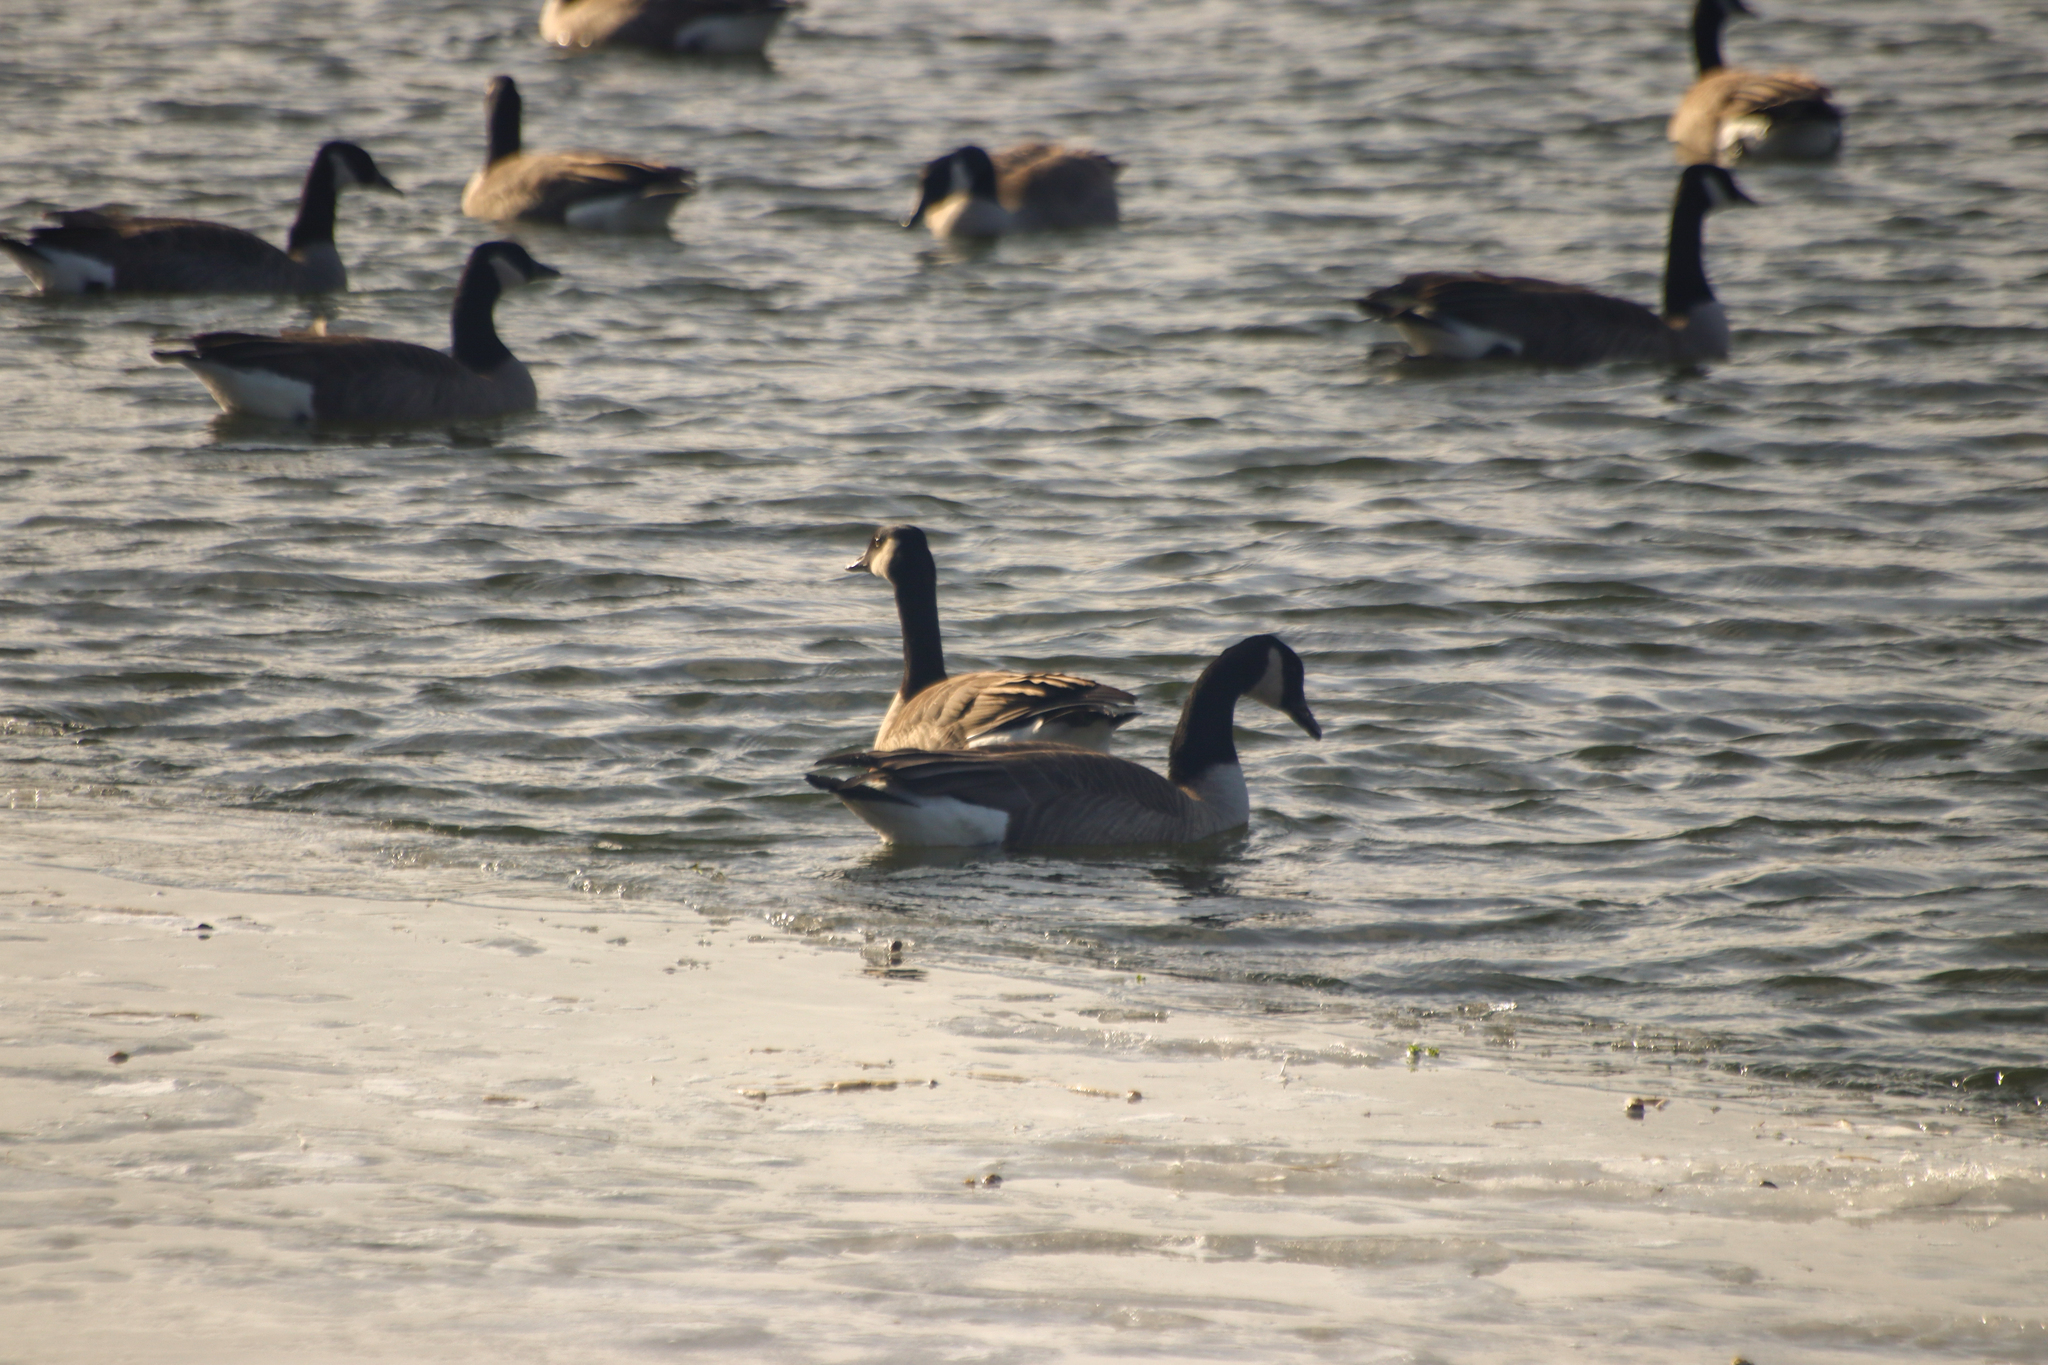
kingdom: Animalia
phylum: Chordata
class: Aves
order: Anseriformes
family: Anatidae
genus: Branta
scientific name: Branta canadensis
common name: Canada goose
